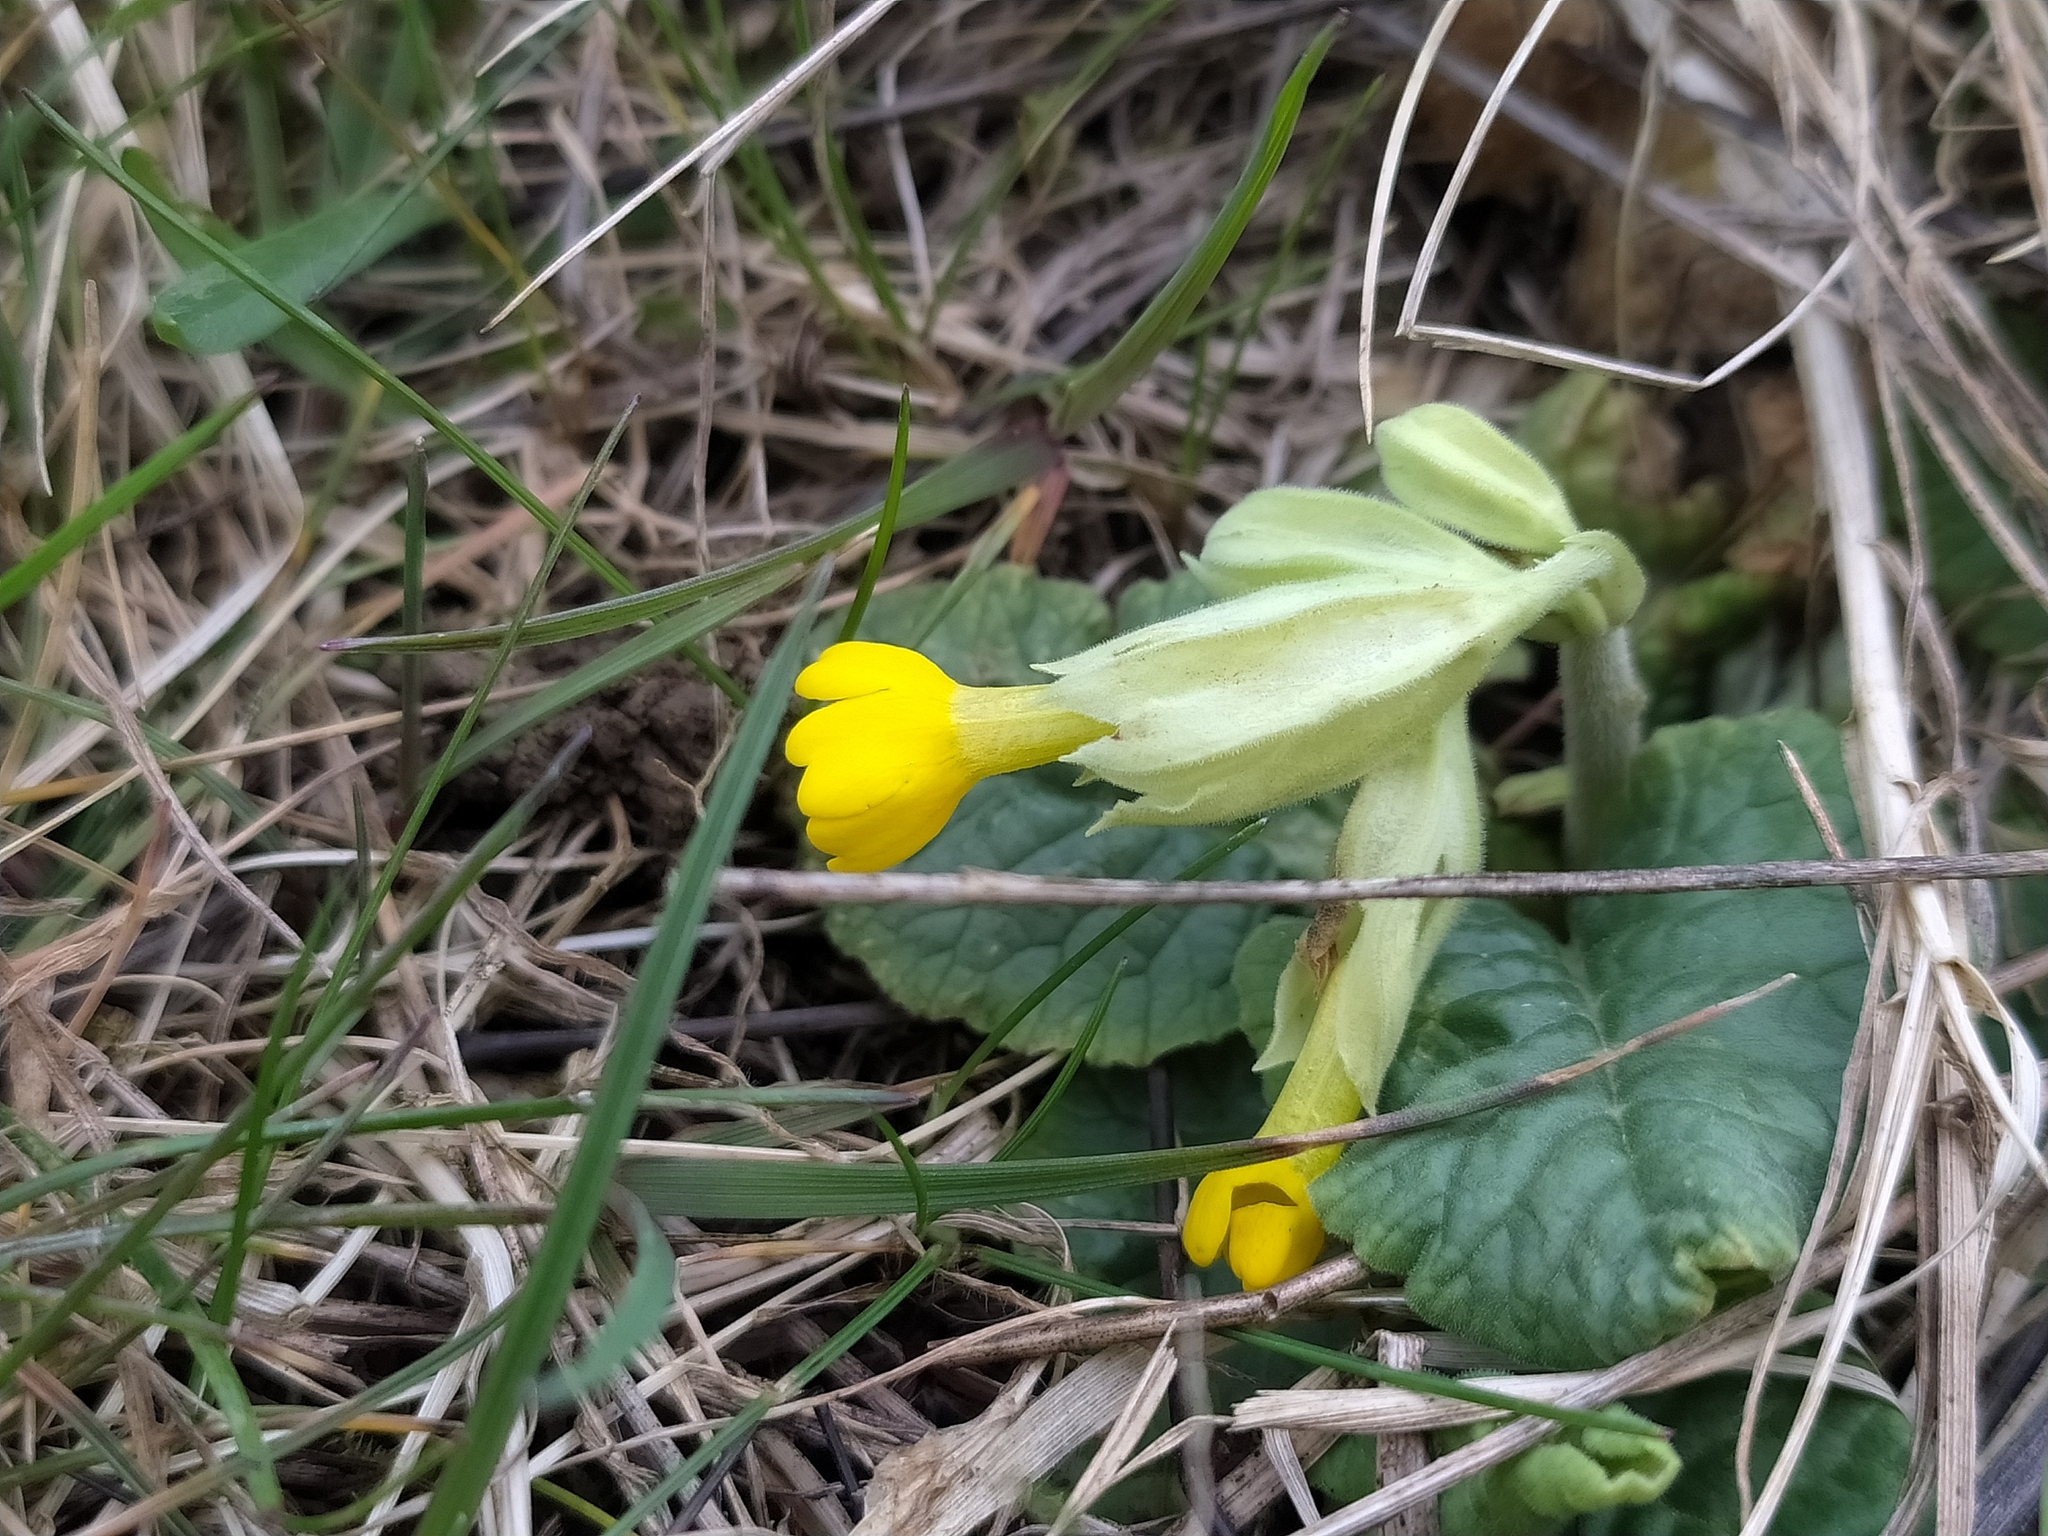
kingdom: Plantae
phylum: Tracheophyta
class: Magnoliopsida
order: Ericales
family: Primulaceae
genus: Primula
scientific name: Primula veris
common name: Cowslip
